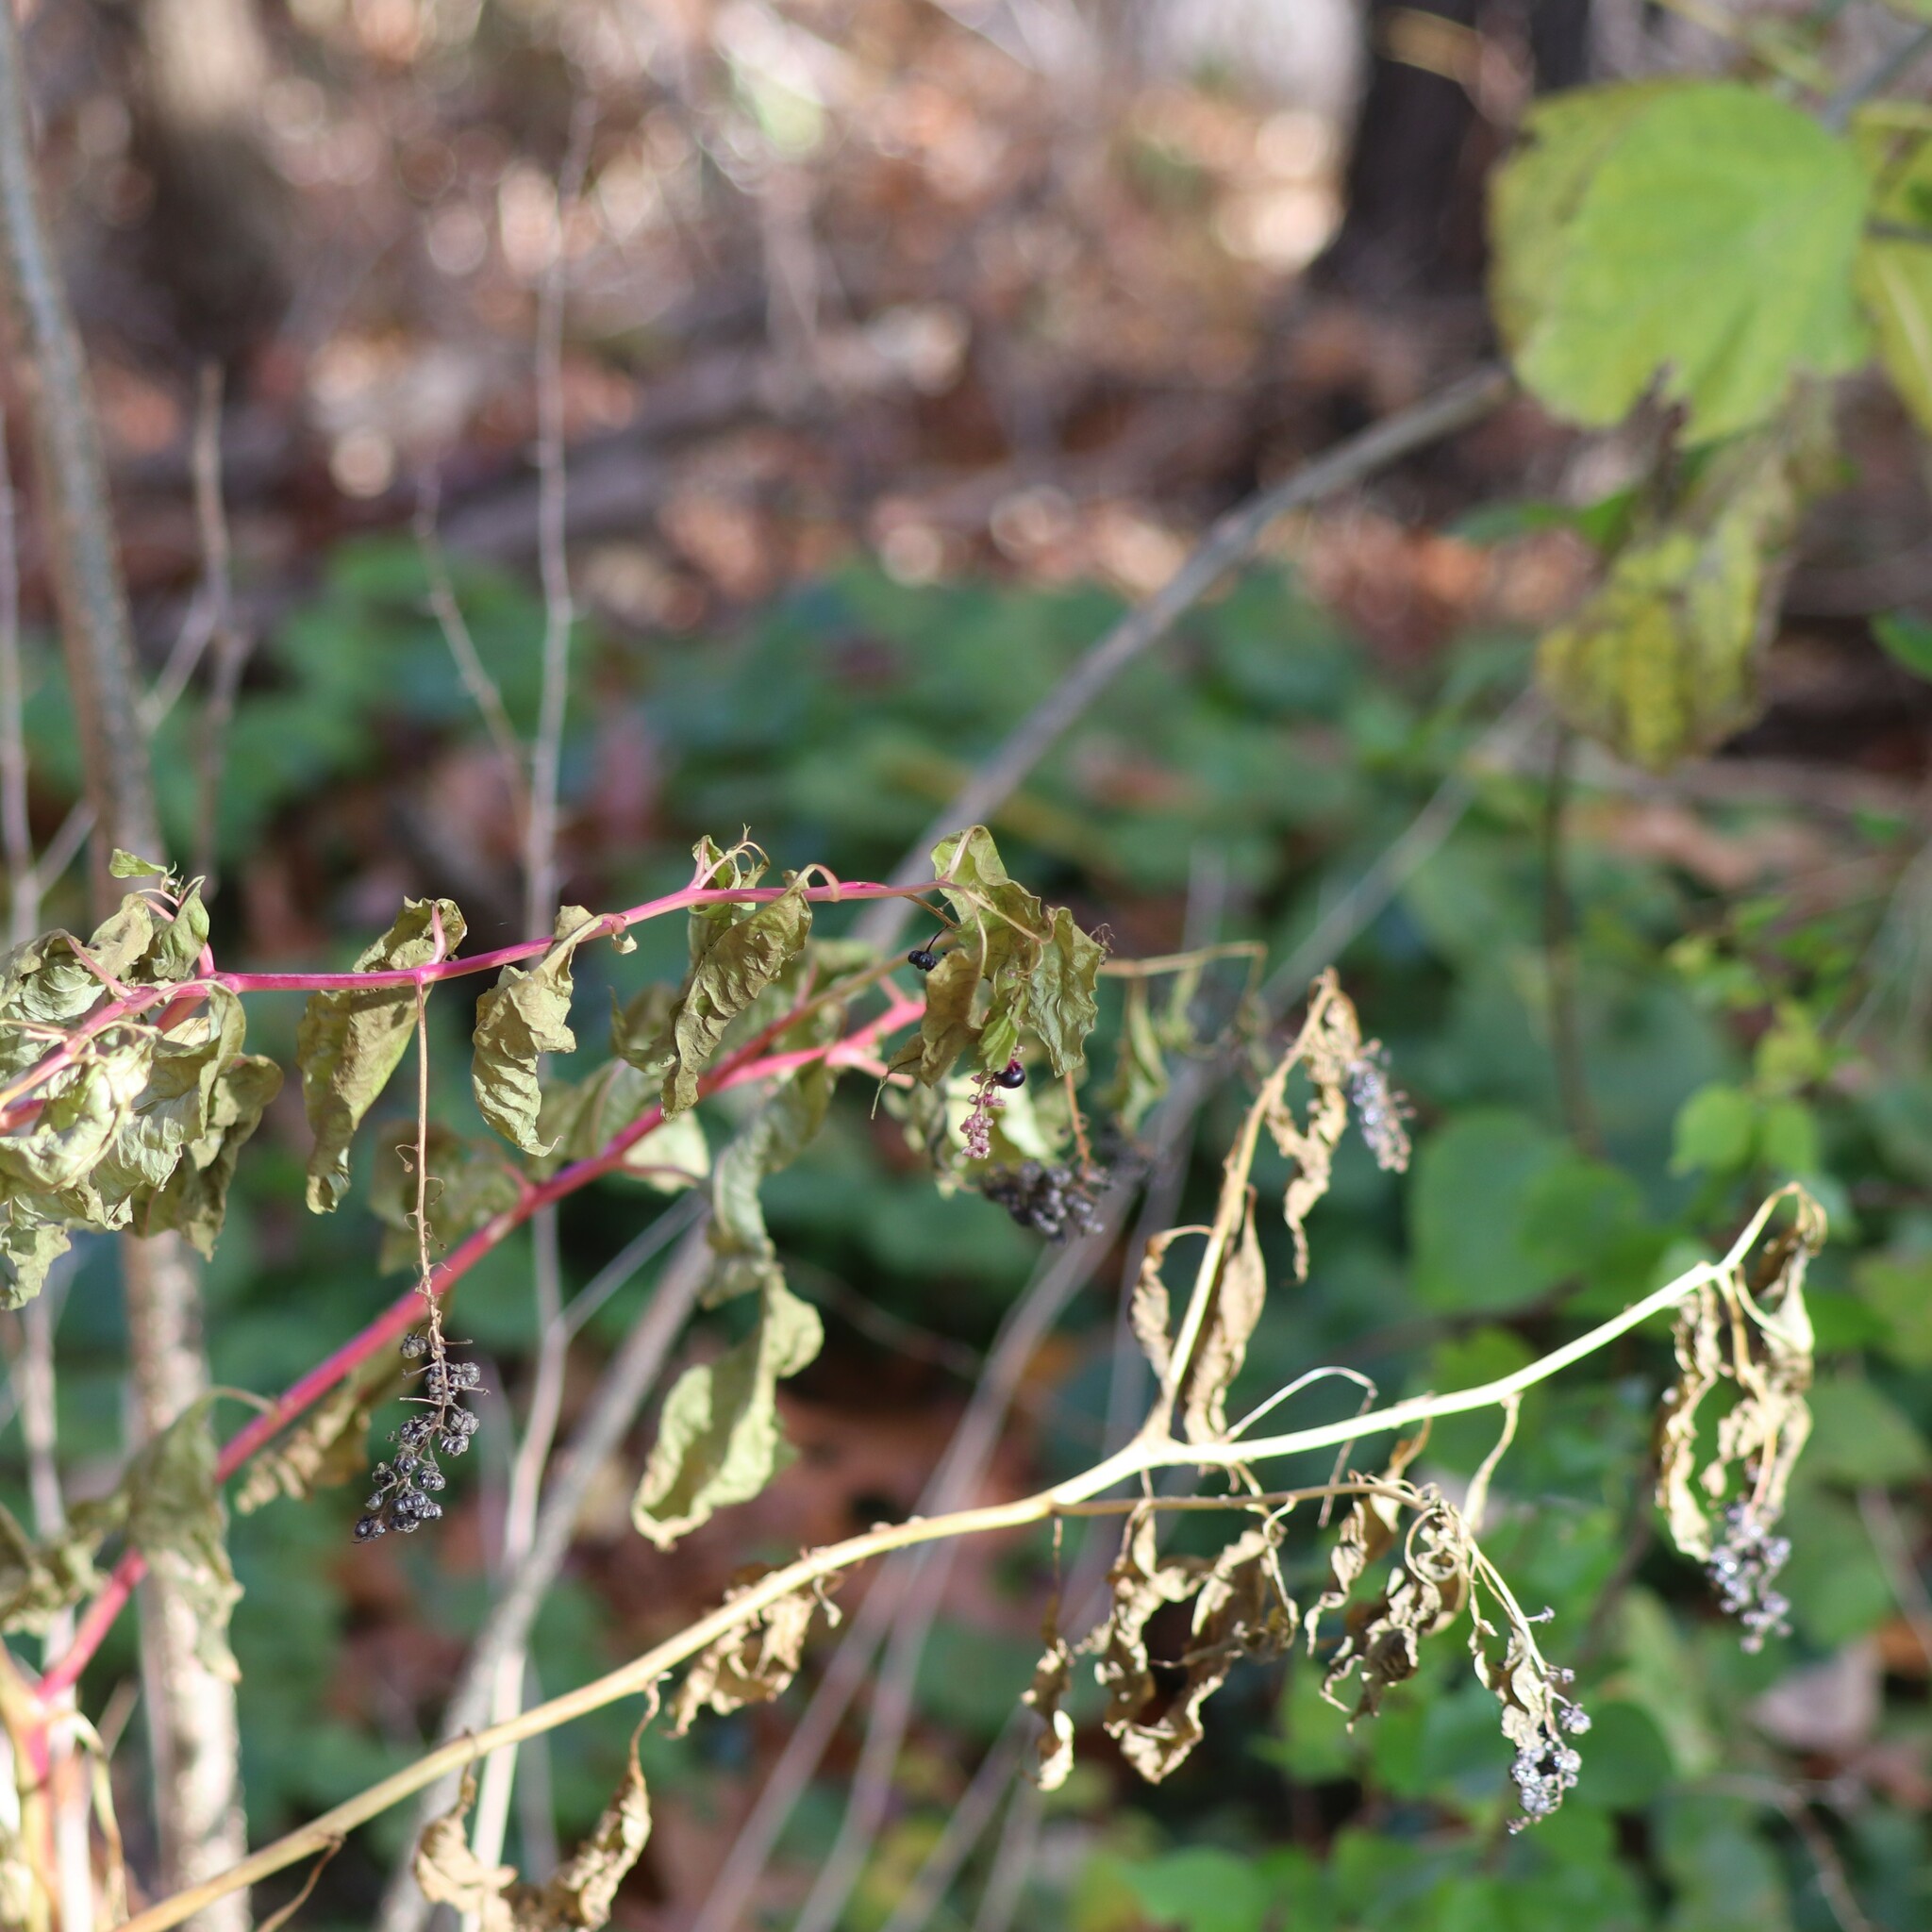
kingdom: Plantae
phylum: Tracheophyta
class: Magnoliopsida
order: Caryophyllales
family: Phytolaccaceae
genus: Phytolacca
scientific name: Phytolacca americana
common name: American pokeweed
